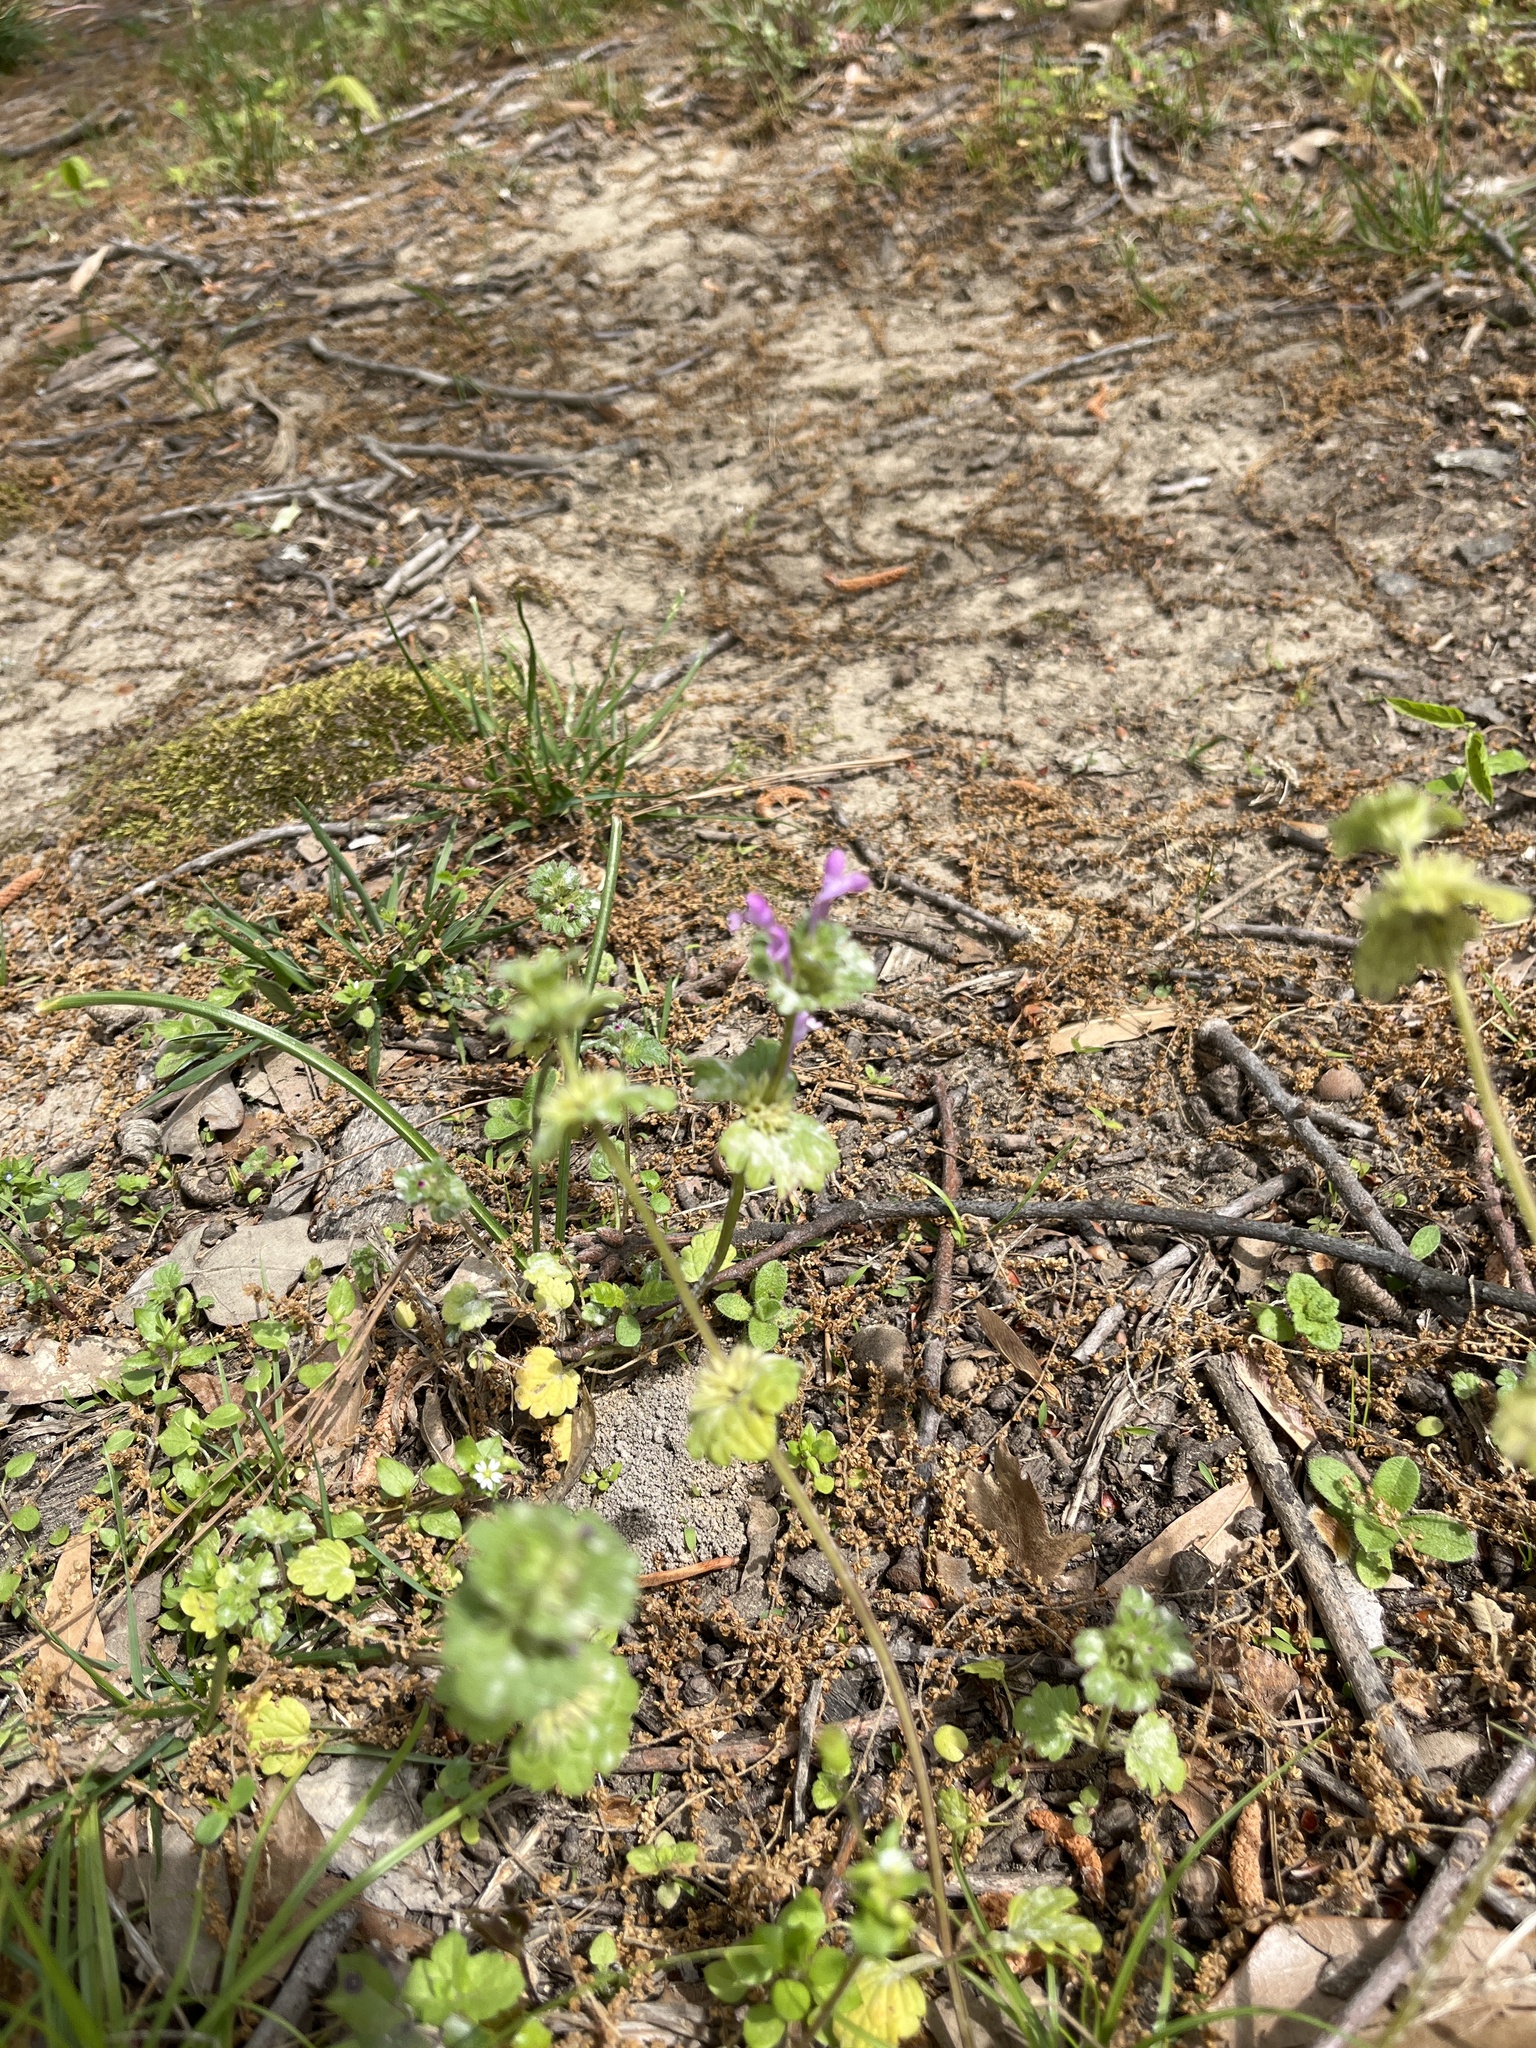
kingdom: Plantae
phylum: Tracheophyta
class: Magnoliopsida
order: Lamiales
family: Lamiaceae
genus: Lamium
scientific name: Lamium amplexicaule
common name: Henbit dead-nettle
